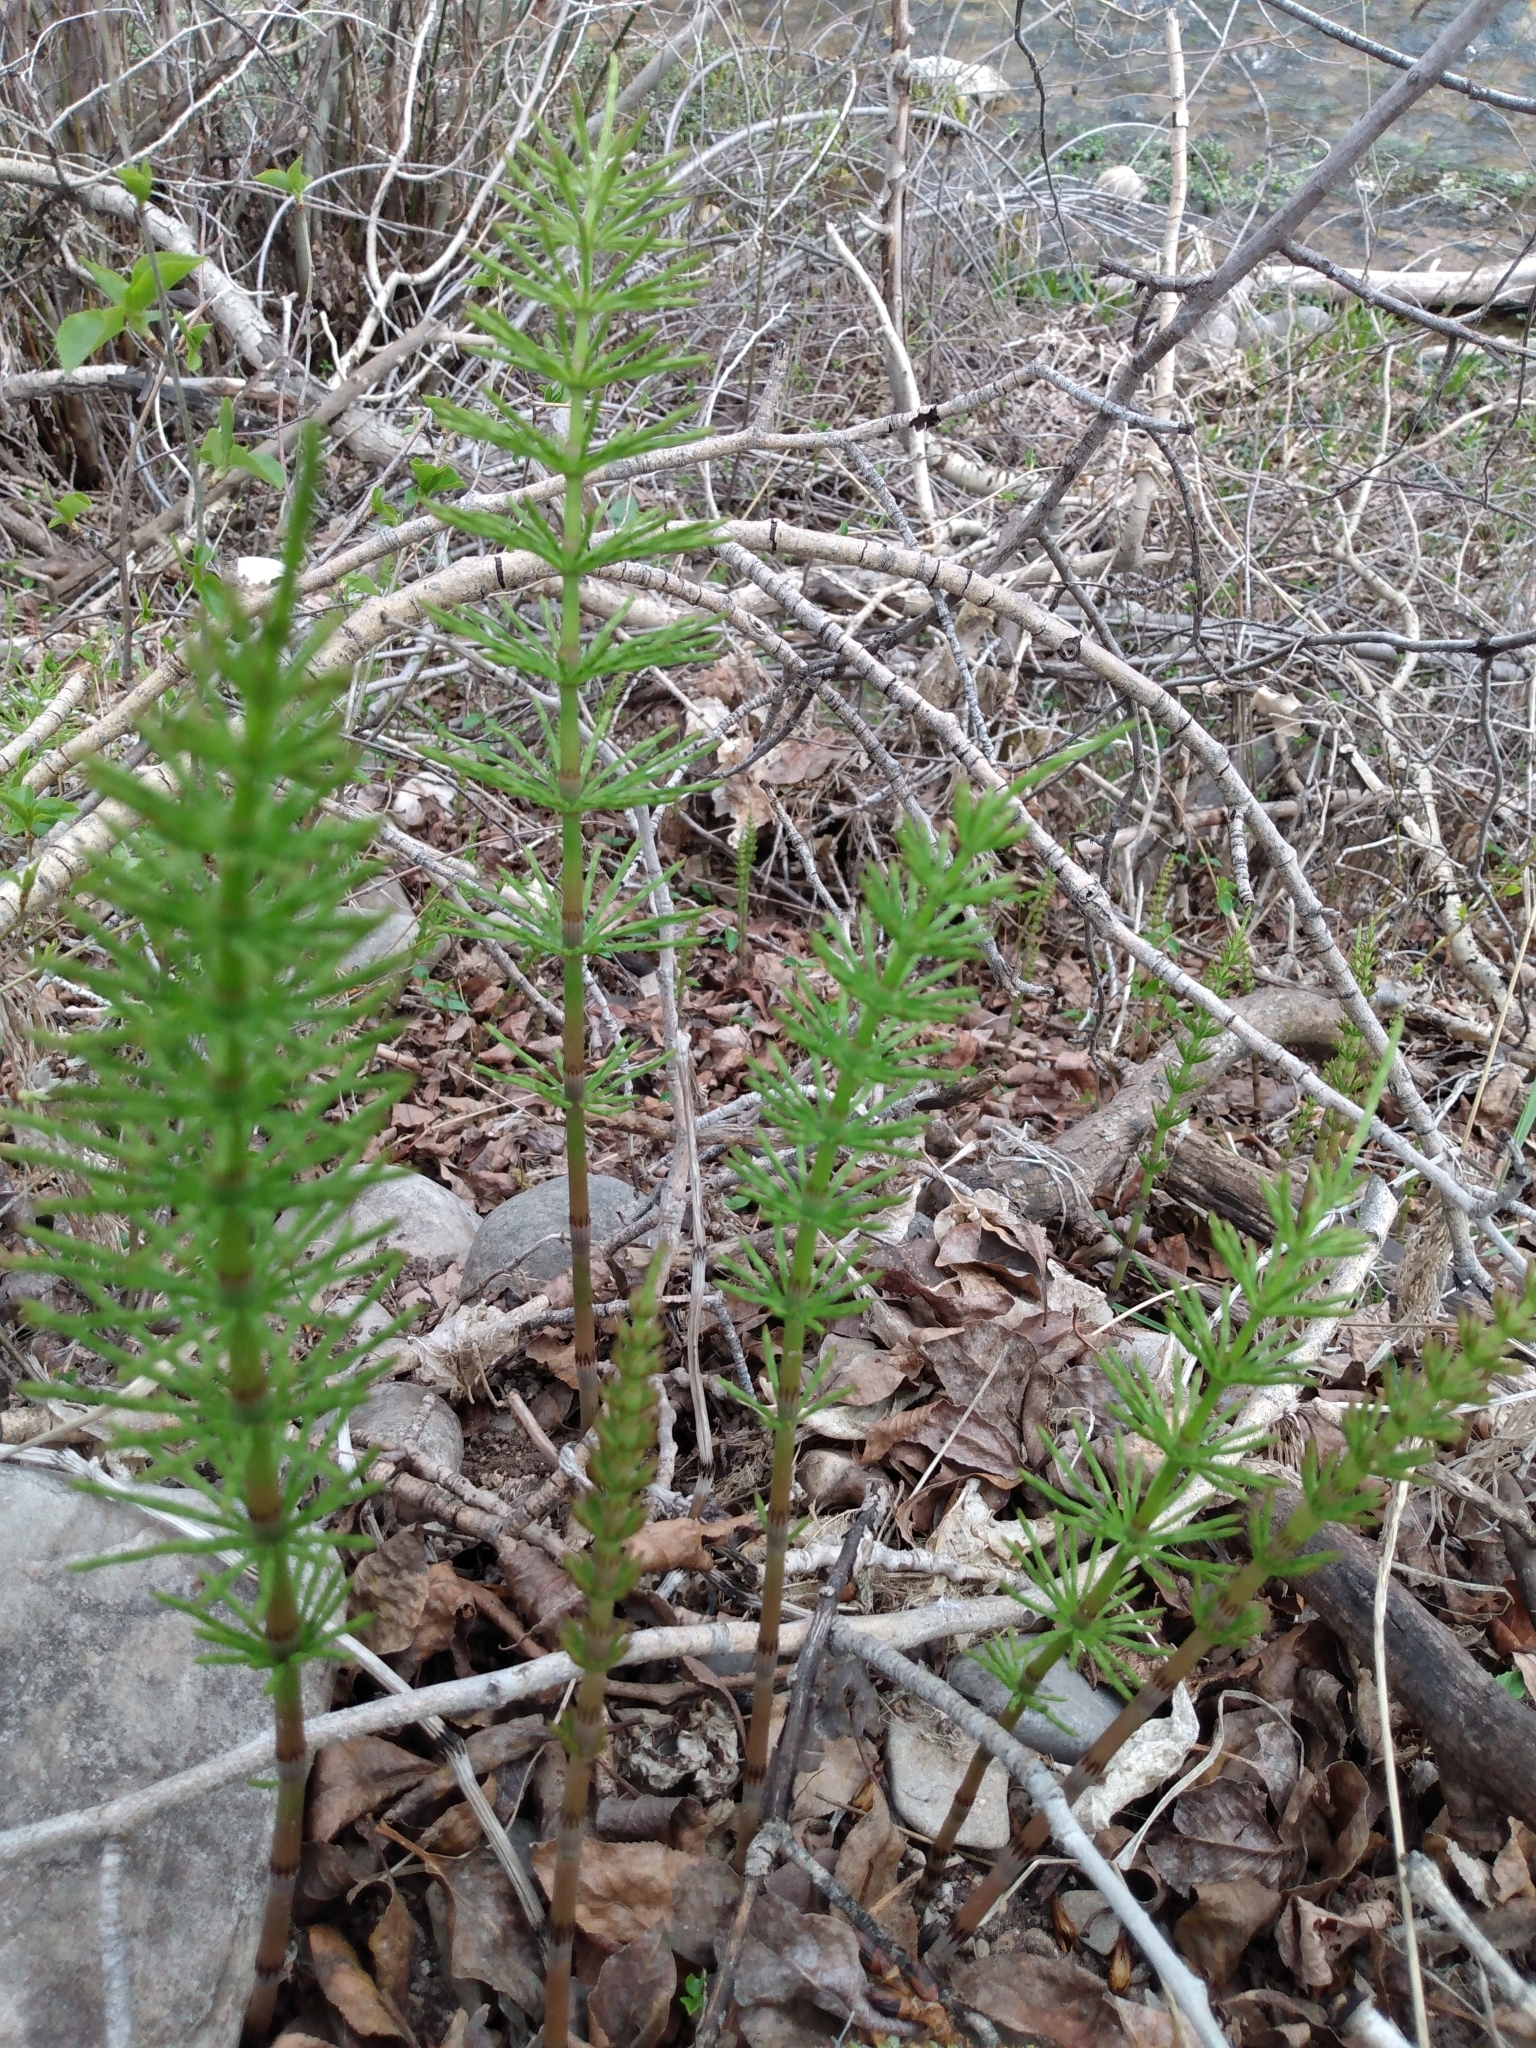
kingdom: Plantae
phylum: Tracheophyta
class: Polypodiopsida
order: Equisetales
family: Equisetaceae
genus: Equisetum
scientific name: Equisetum arvense
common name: Field horsetail
